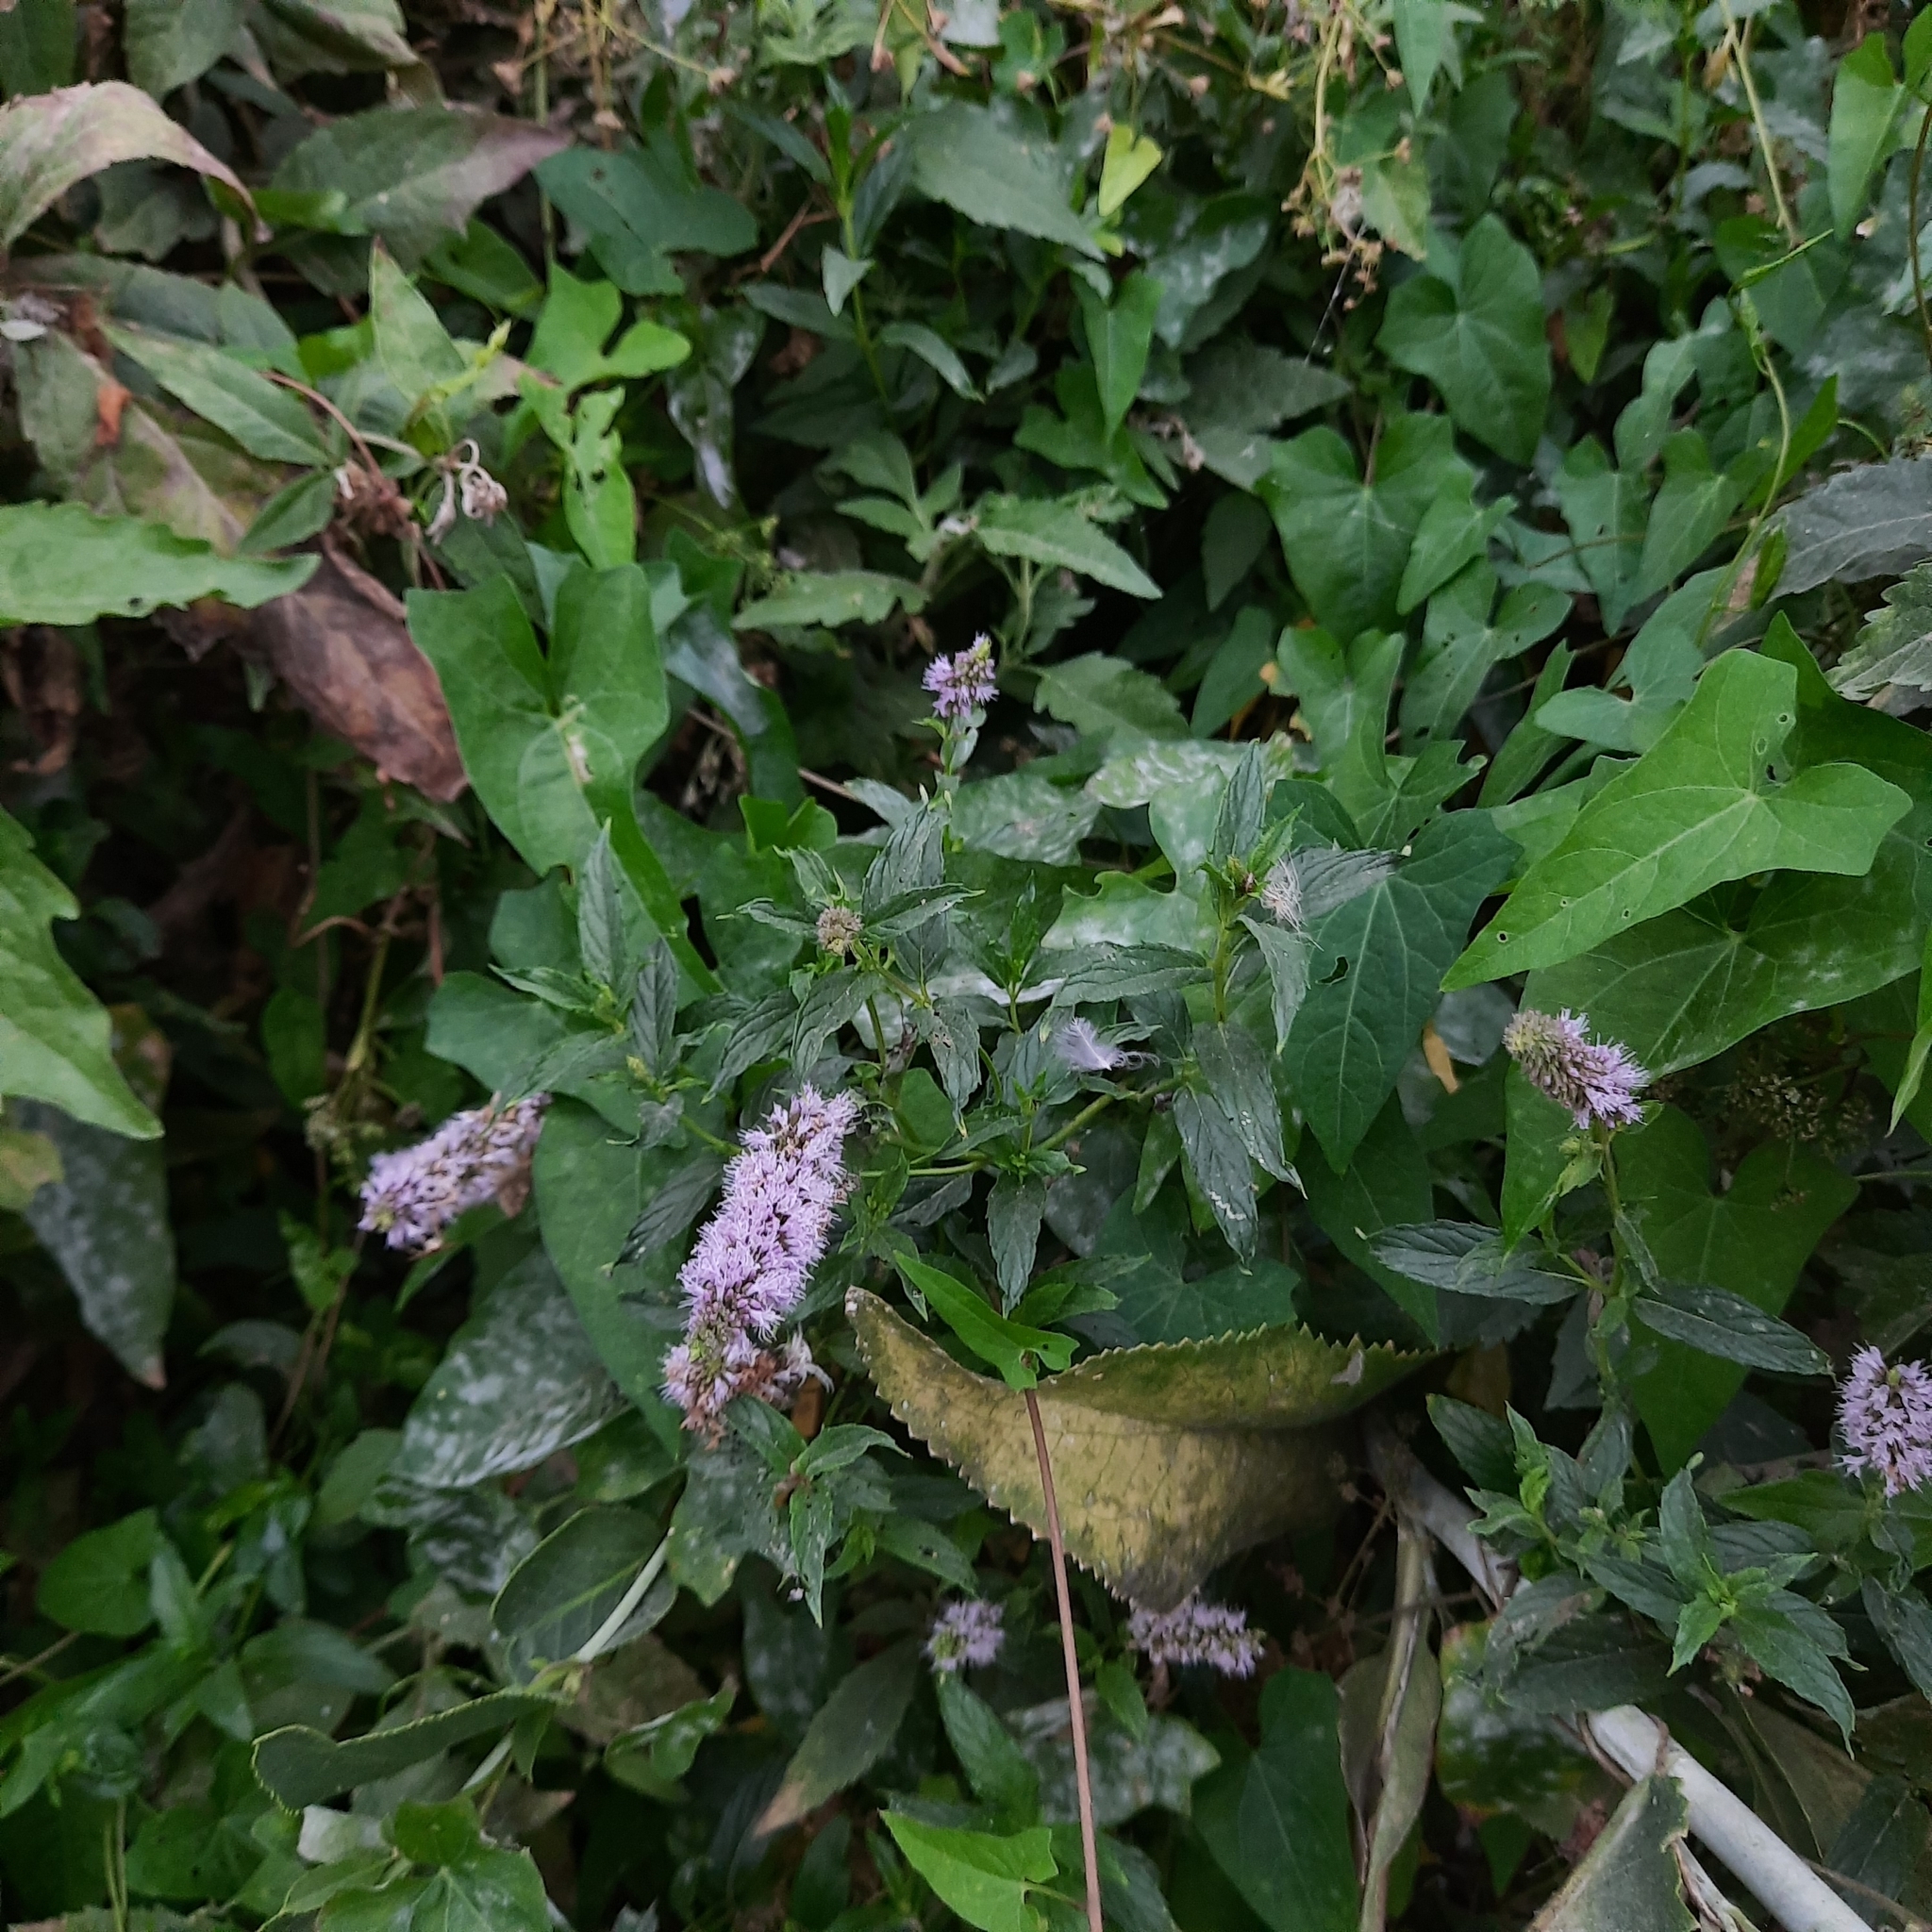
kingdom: Plantae
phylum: Tracheophyta
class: Magnoliopsida
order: Lamiales
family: Lamiaceae
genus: Mentha
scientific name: Mentha longifolia
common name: Horse mint
